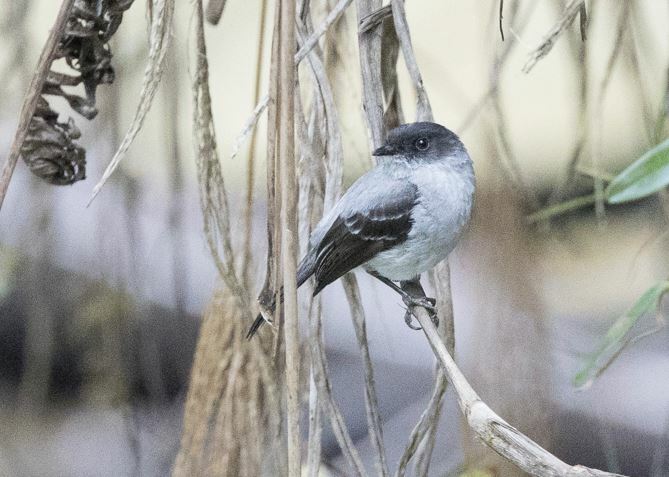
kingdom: Animalia
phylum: Chordata
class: Aves
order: Passeriformes
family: Tyrannidae
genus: Serpophaga
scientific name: Serpophaga cinerea
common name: Torrent tyrannulet
